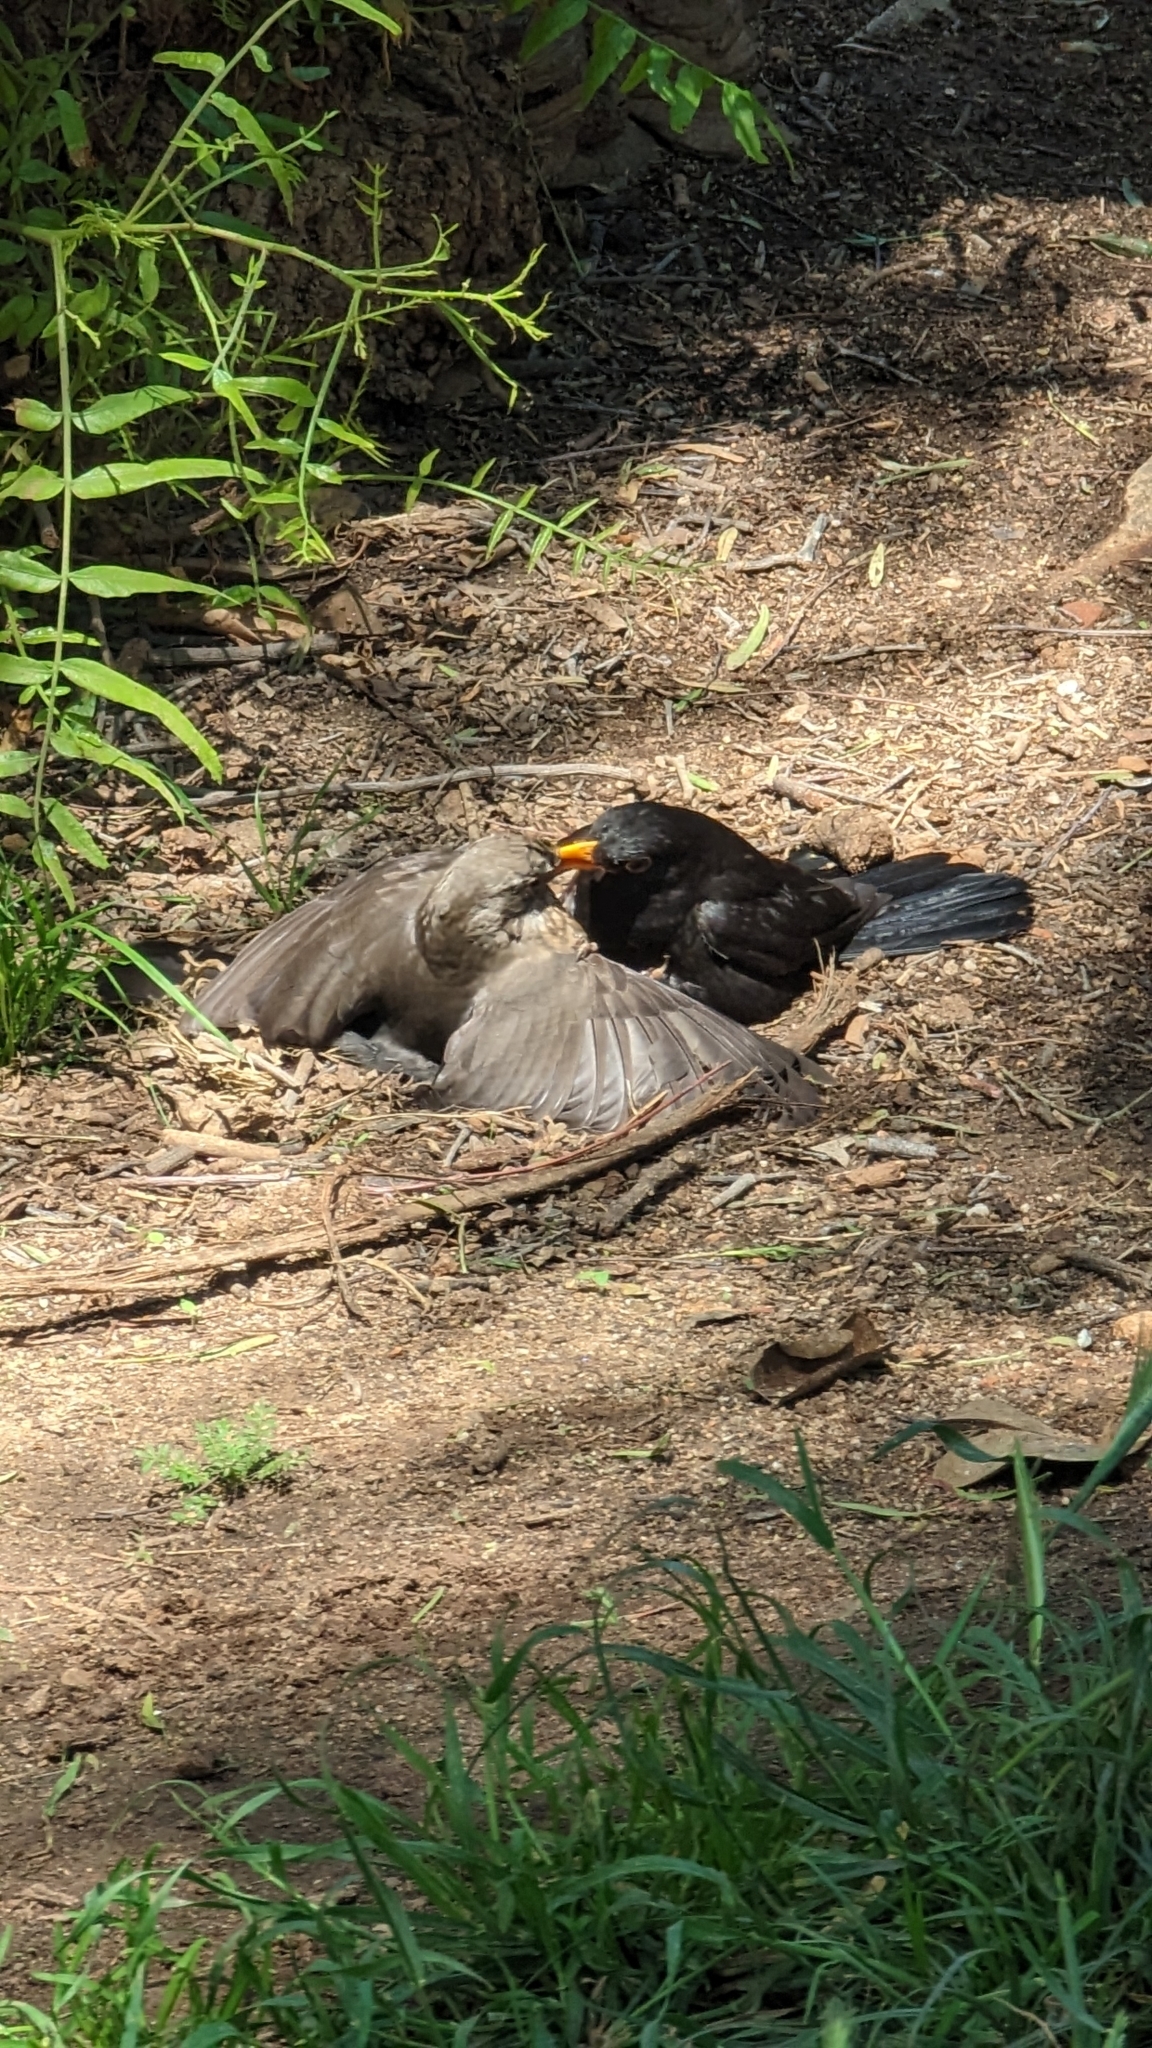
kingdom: Animalia
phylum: Chordata
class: Aves
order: Passeriformes
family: Turdidae
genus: Turdus
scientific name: Turdus merula
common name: Common blackbird
